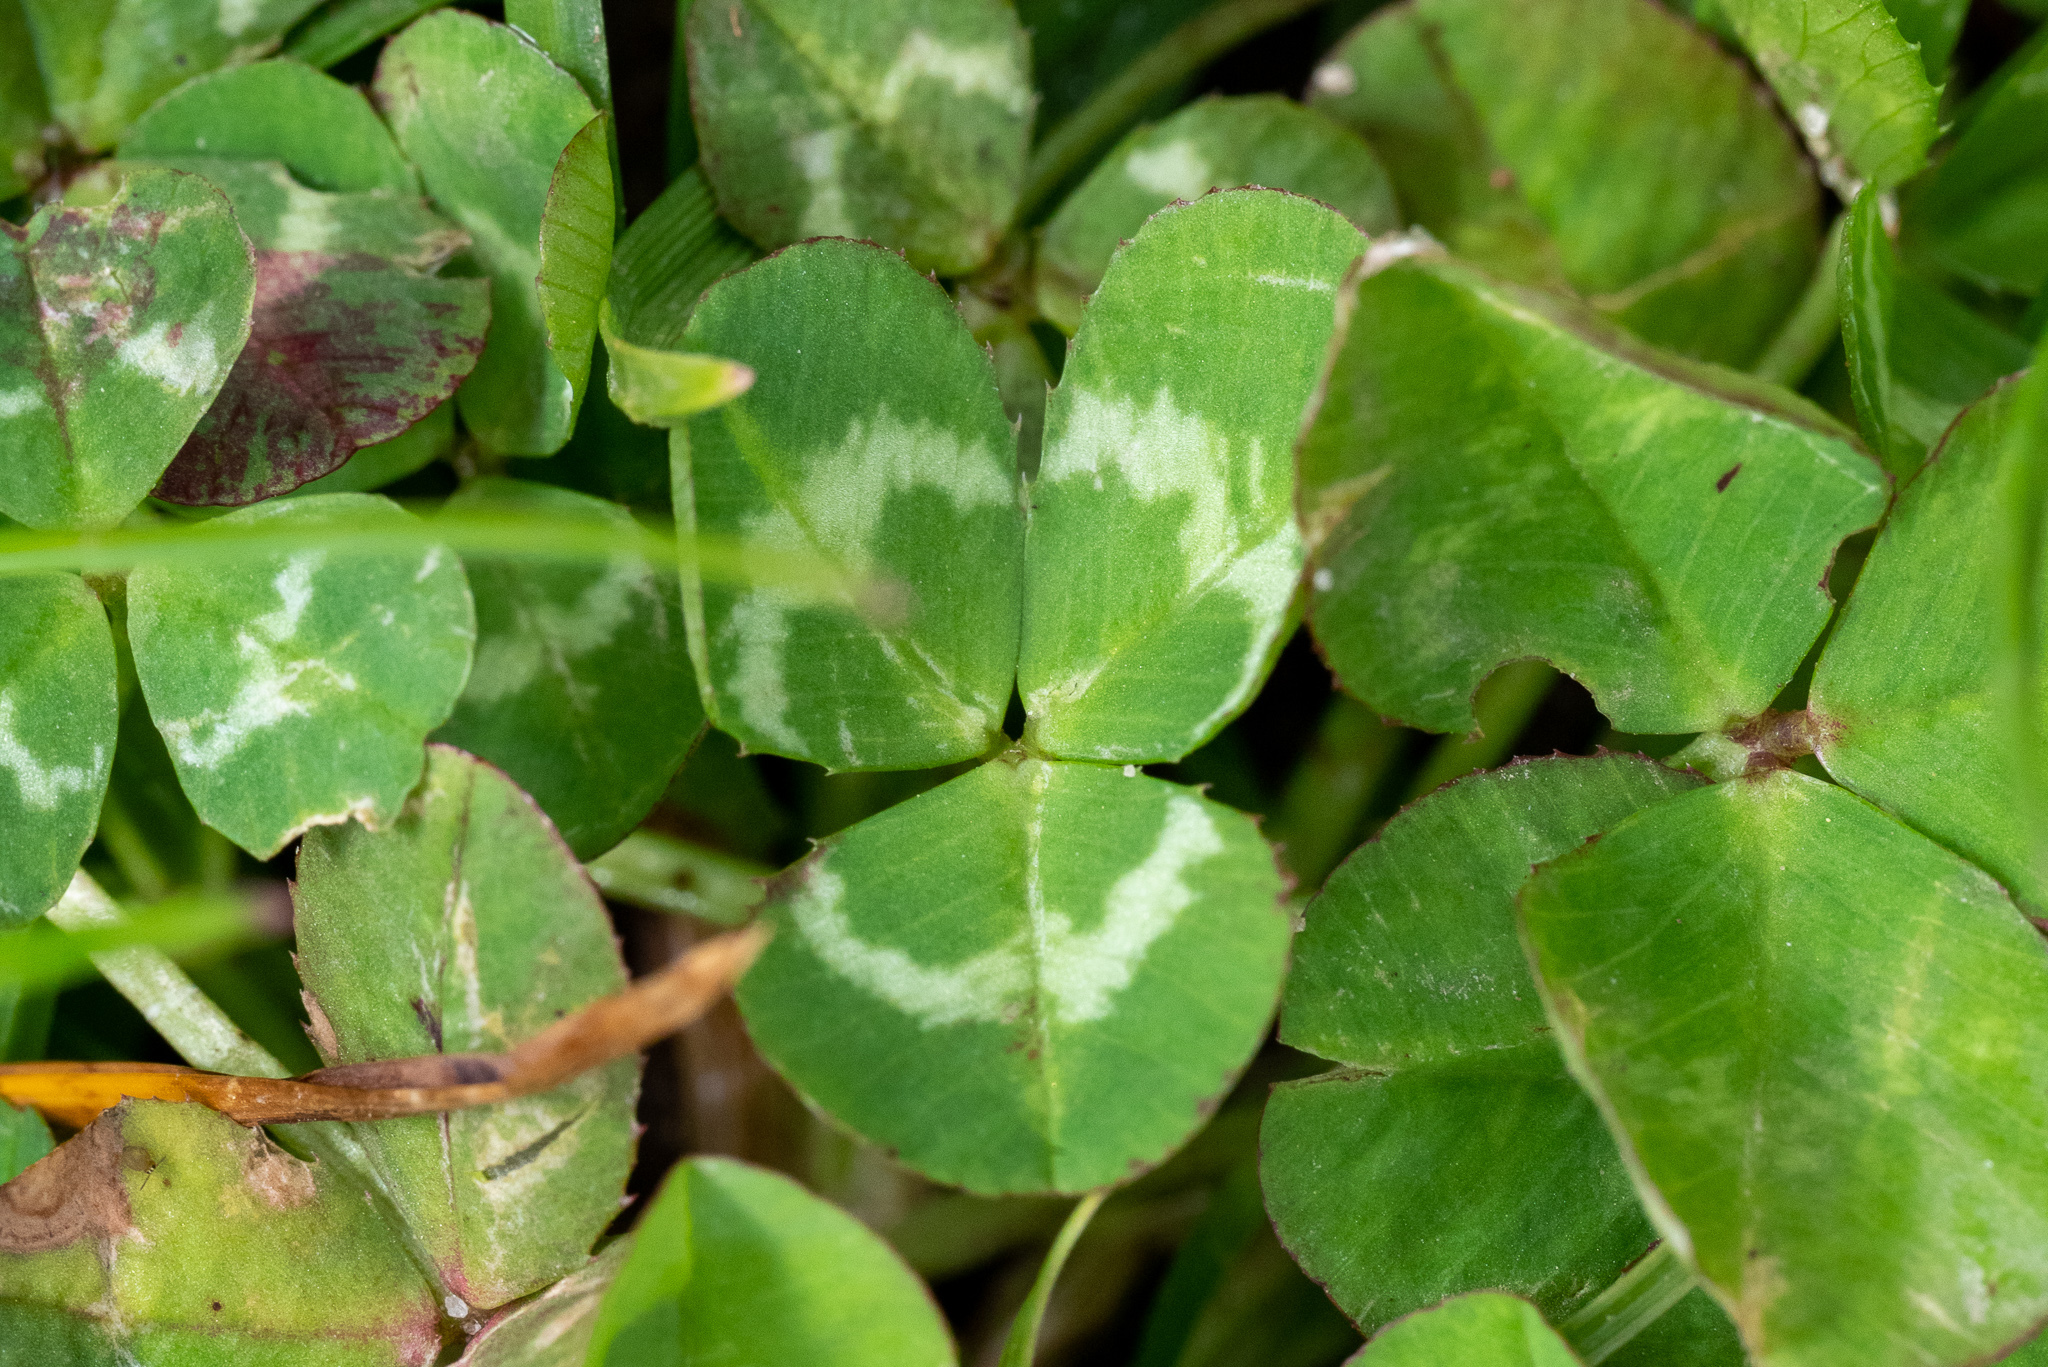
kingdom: Plantae
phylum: Tracheophyta
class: Magnoliopsida
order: Fabales
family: Fabaceae
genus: Trifolium
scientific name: Trifolium repens
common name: White clover
